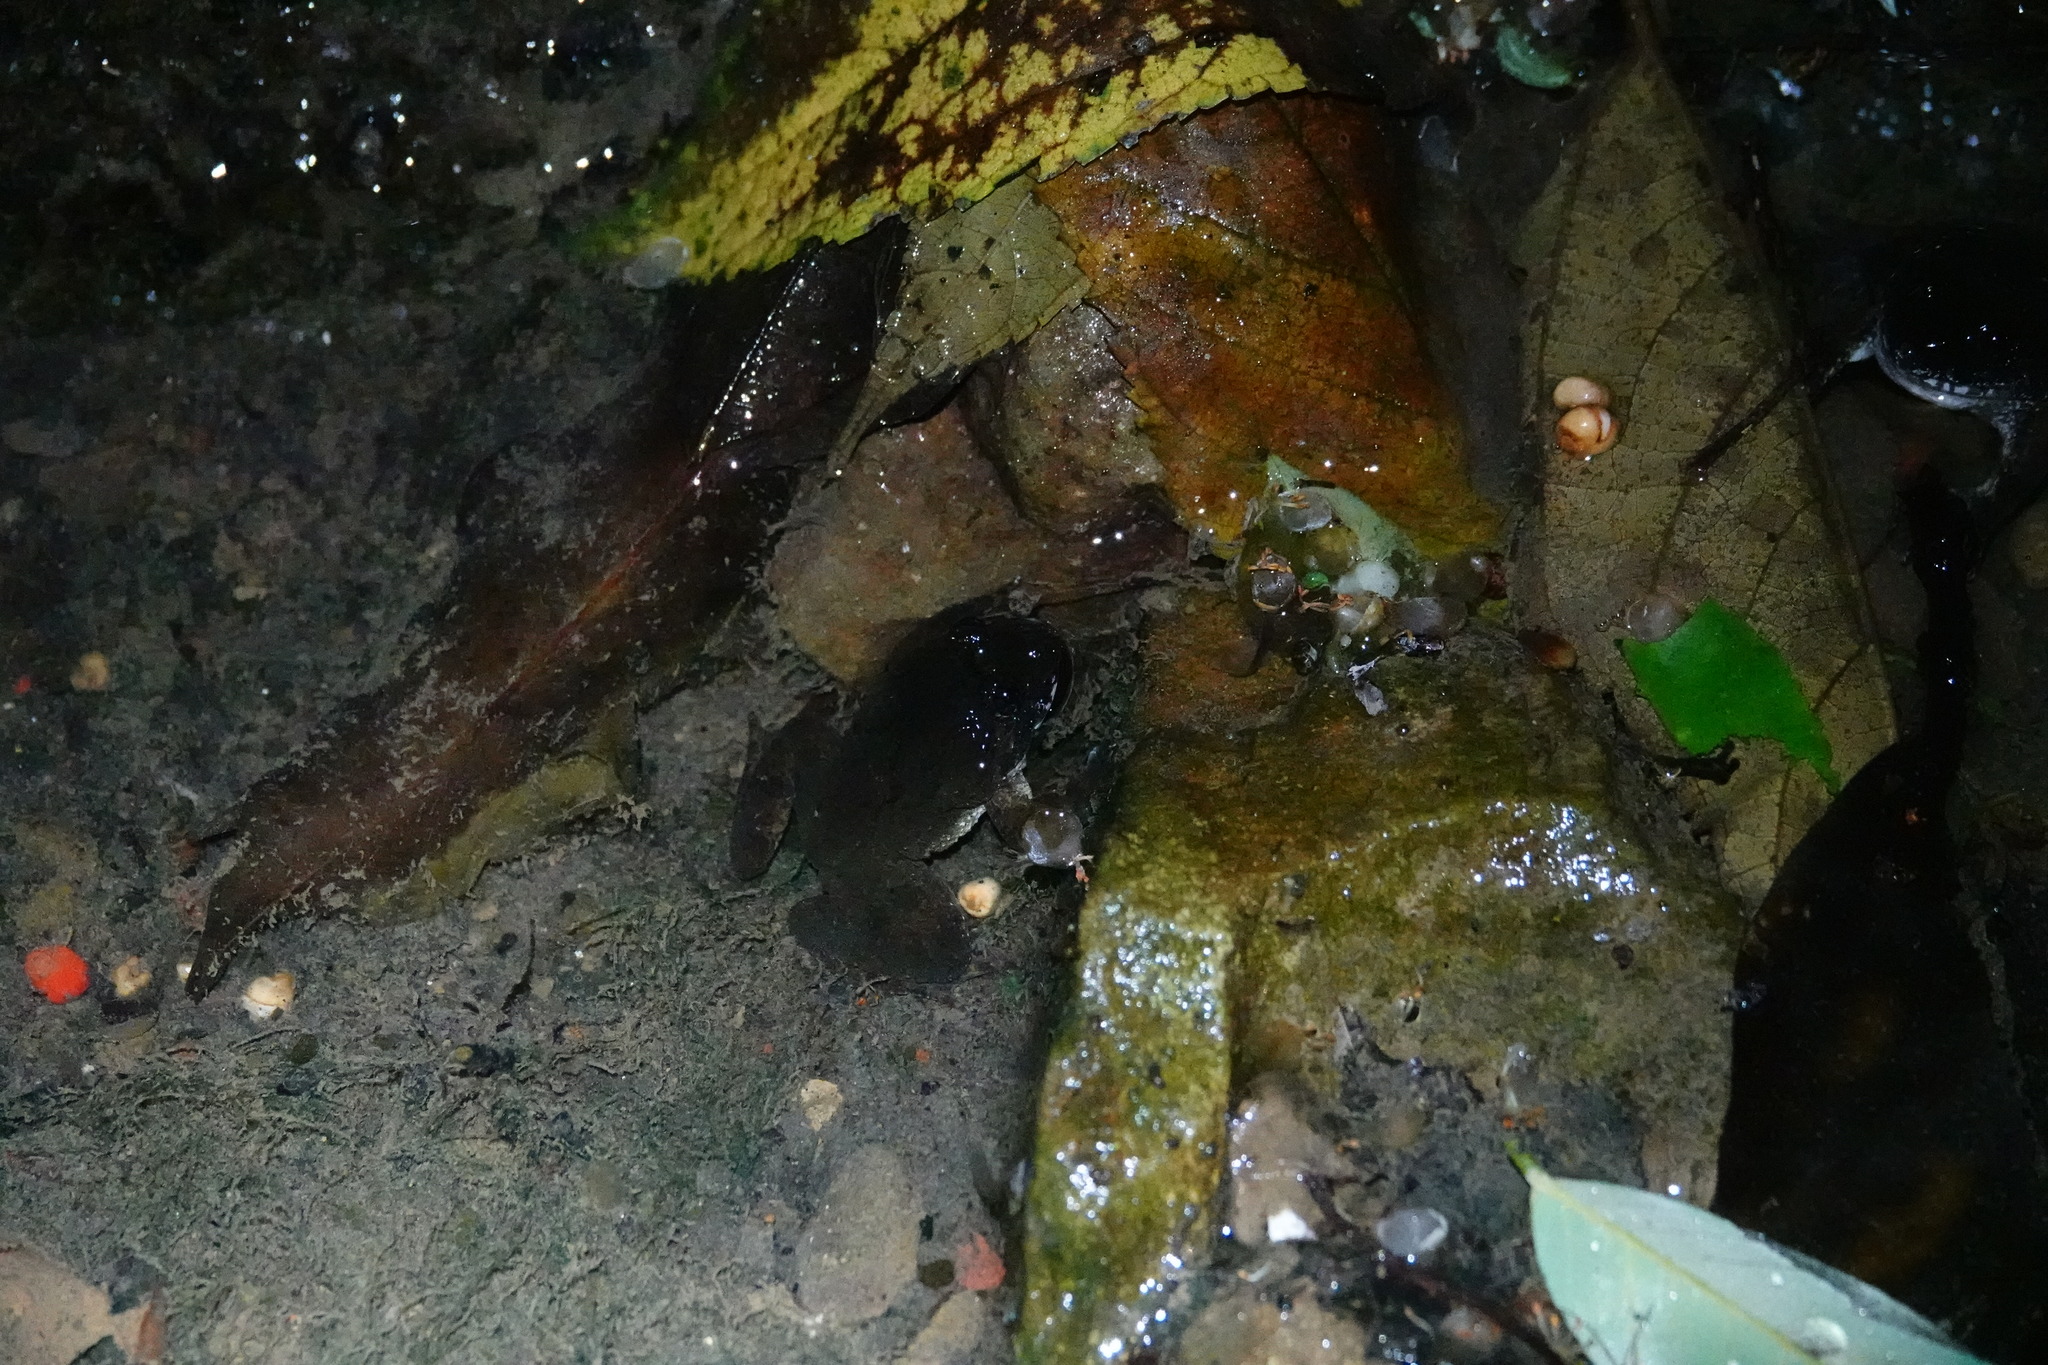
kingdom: Animalia
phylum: Chordata
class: Amphibia
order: Anura
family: Dicroglossidae
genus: Limnonectes
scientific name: Limnonectes fujianensis
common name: Fujian large-headed frog
